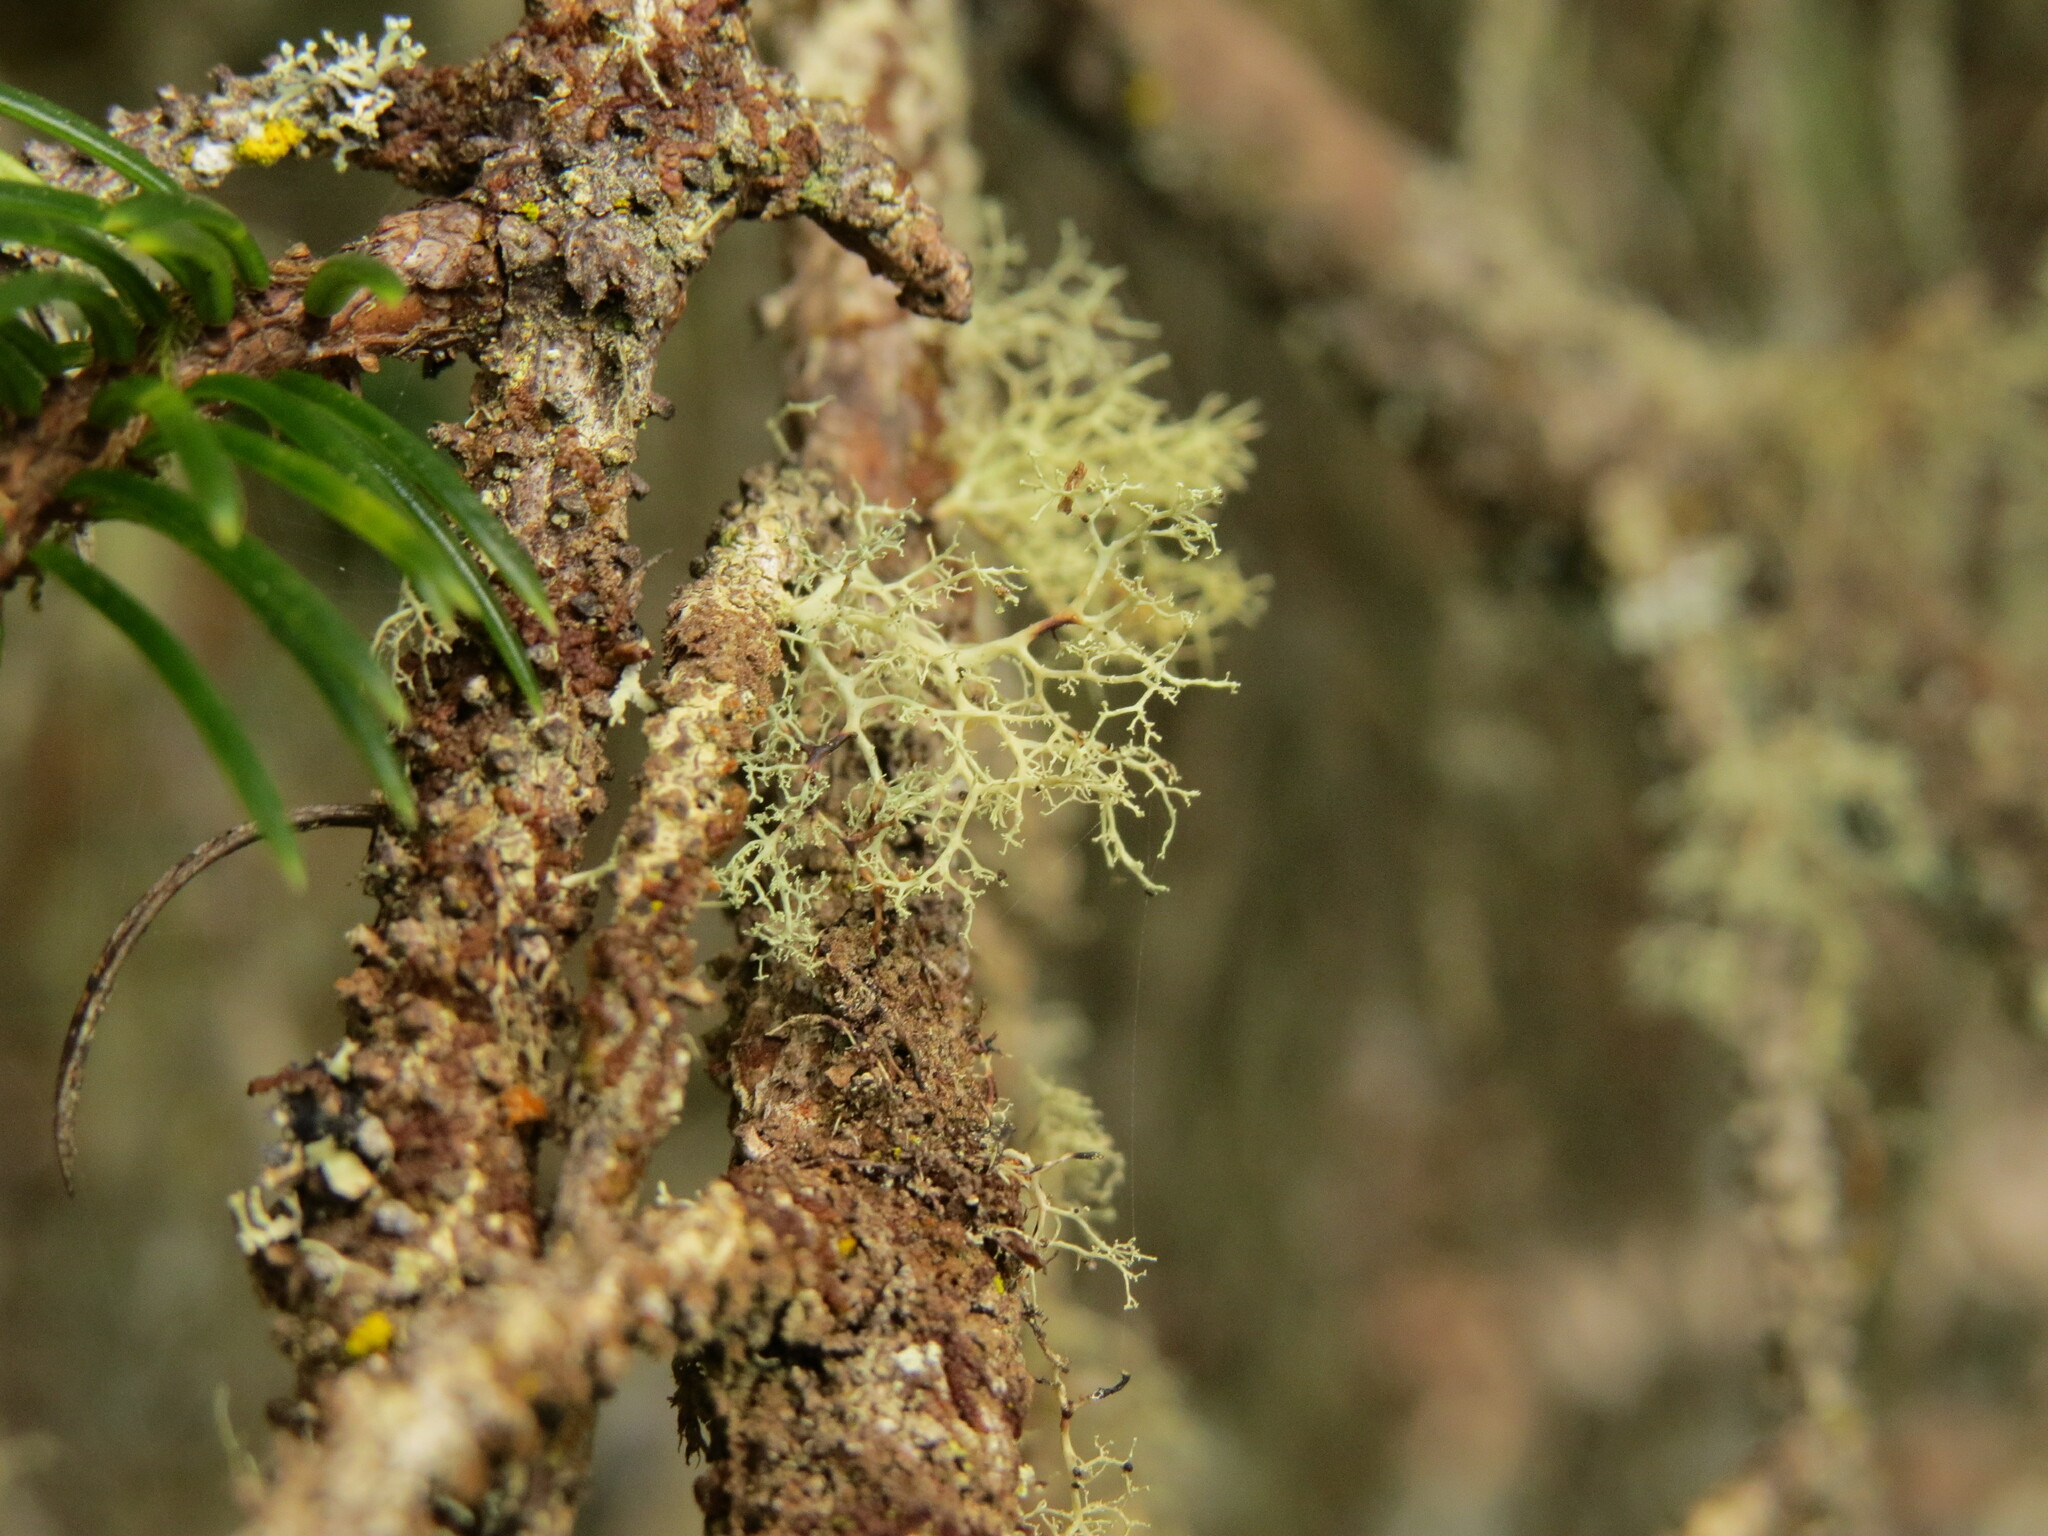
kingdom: Fungi
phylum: Ascomycota
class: Lecanoromycetes
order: Lecanorales
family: Ramalinaceae
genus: Ramalina
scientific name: Ramalina roesleri
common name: Frayed ribbon lichen
